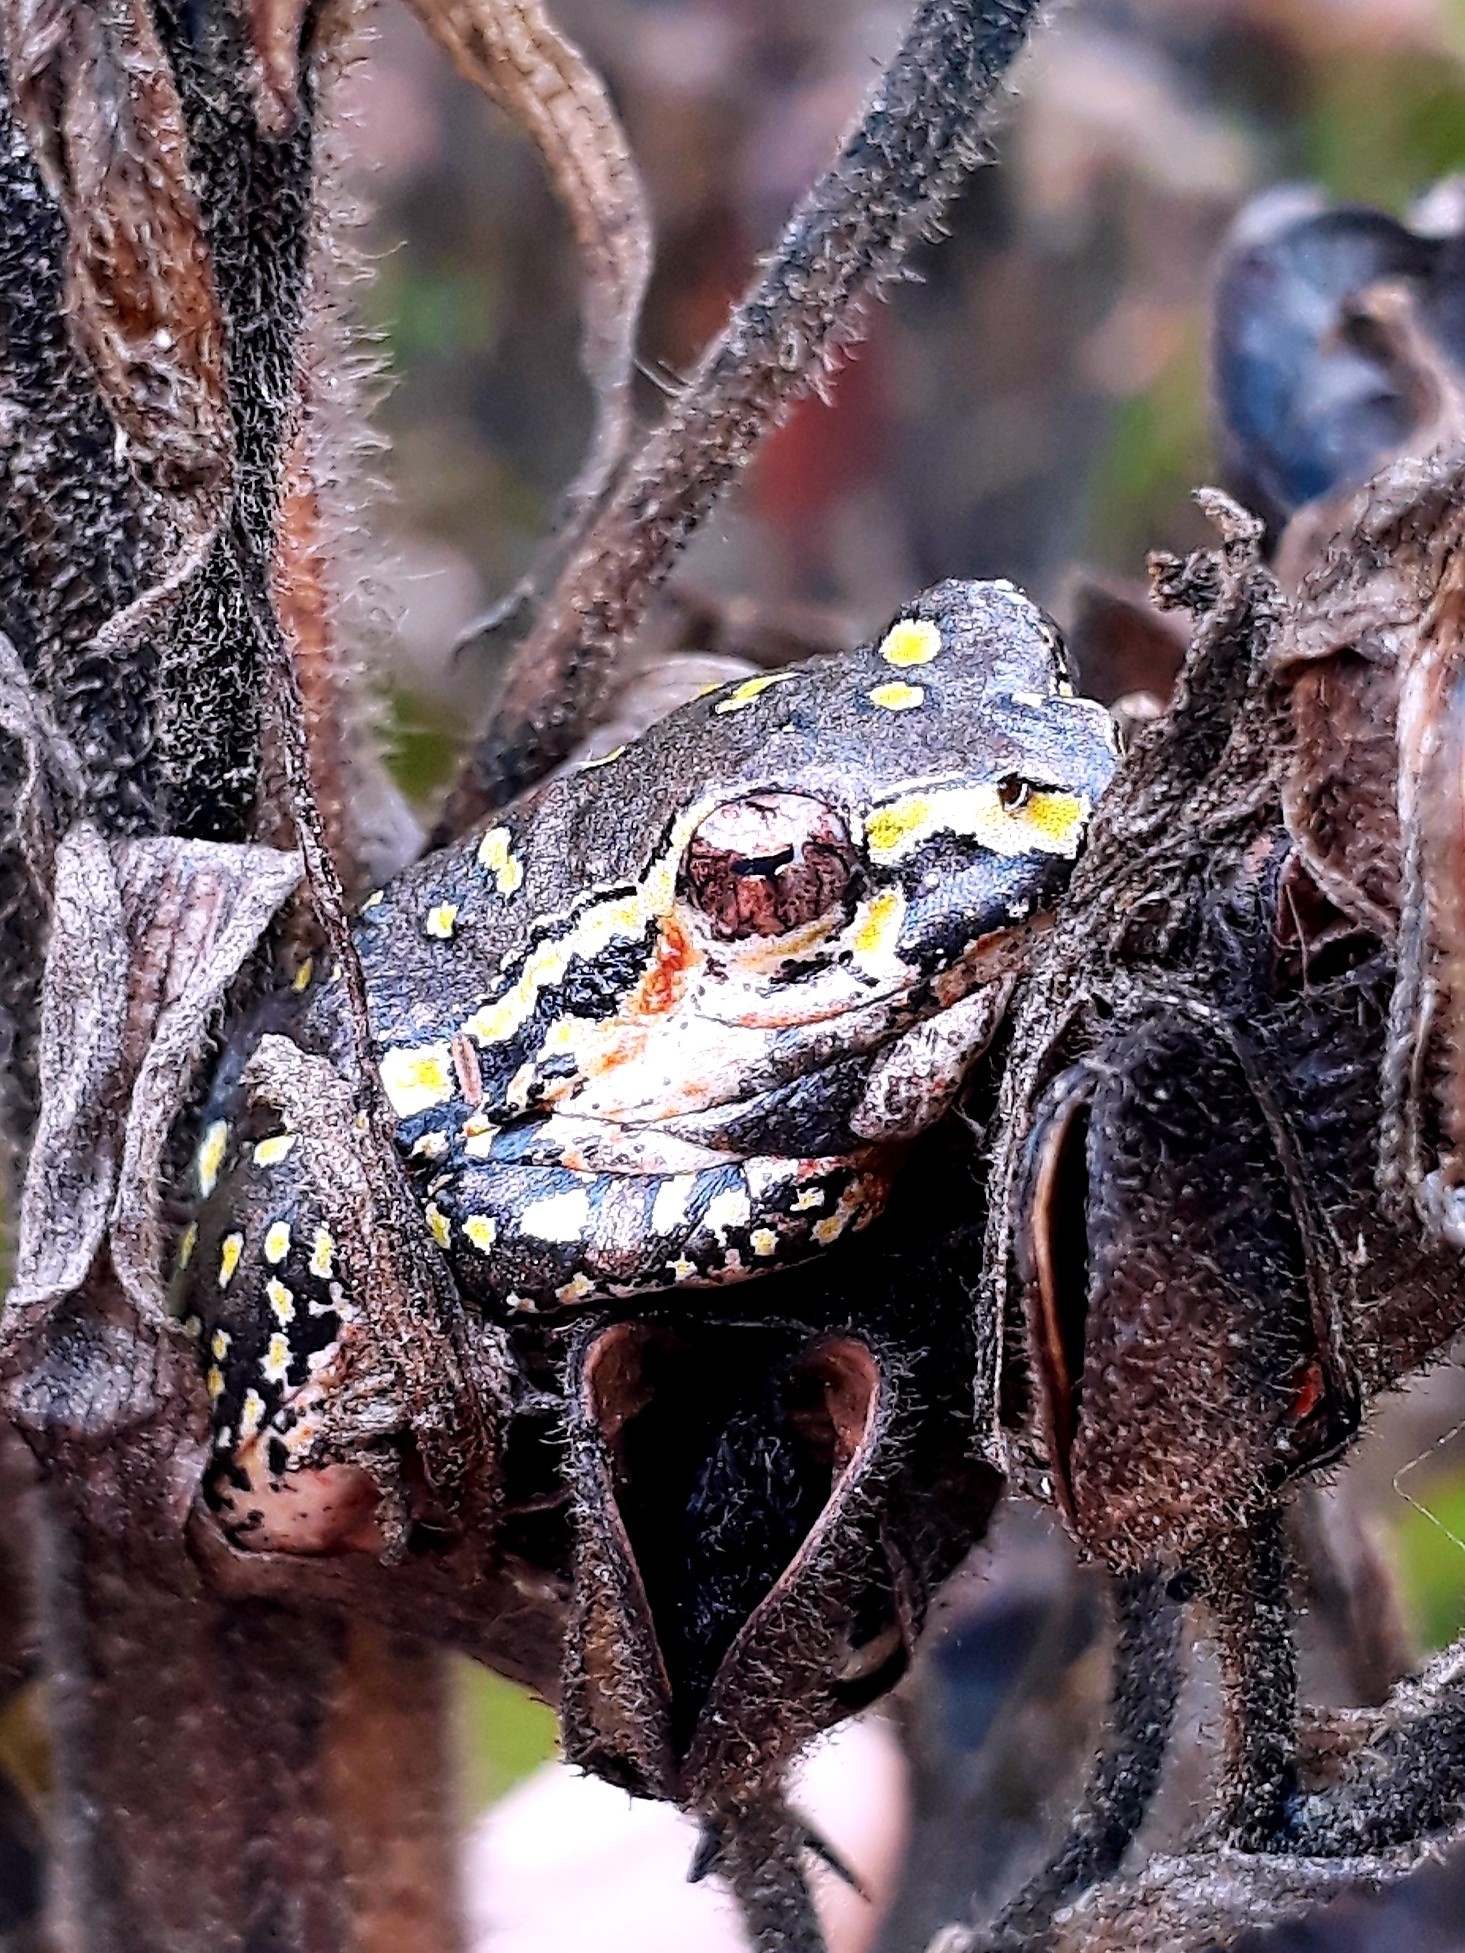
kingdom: Animalia
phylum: Chordata
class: Amphibia
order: Anura
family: Hyperoliidae
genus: Hyperolius
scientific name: Hyperolius marmoratus
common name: Painted reed frog
